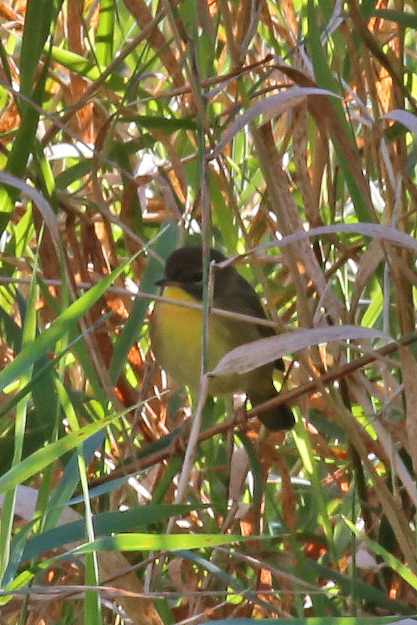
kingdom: Animalia
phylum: Chordata
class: Aves
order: Passeriformes
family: Parulidae
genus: Geothlypis
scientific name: Geothlypis trichas
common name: Common yellowthroat
